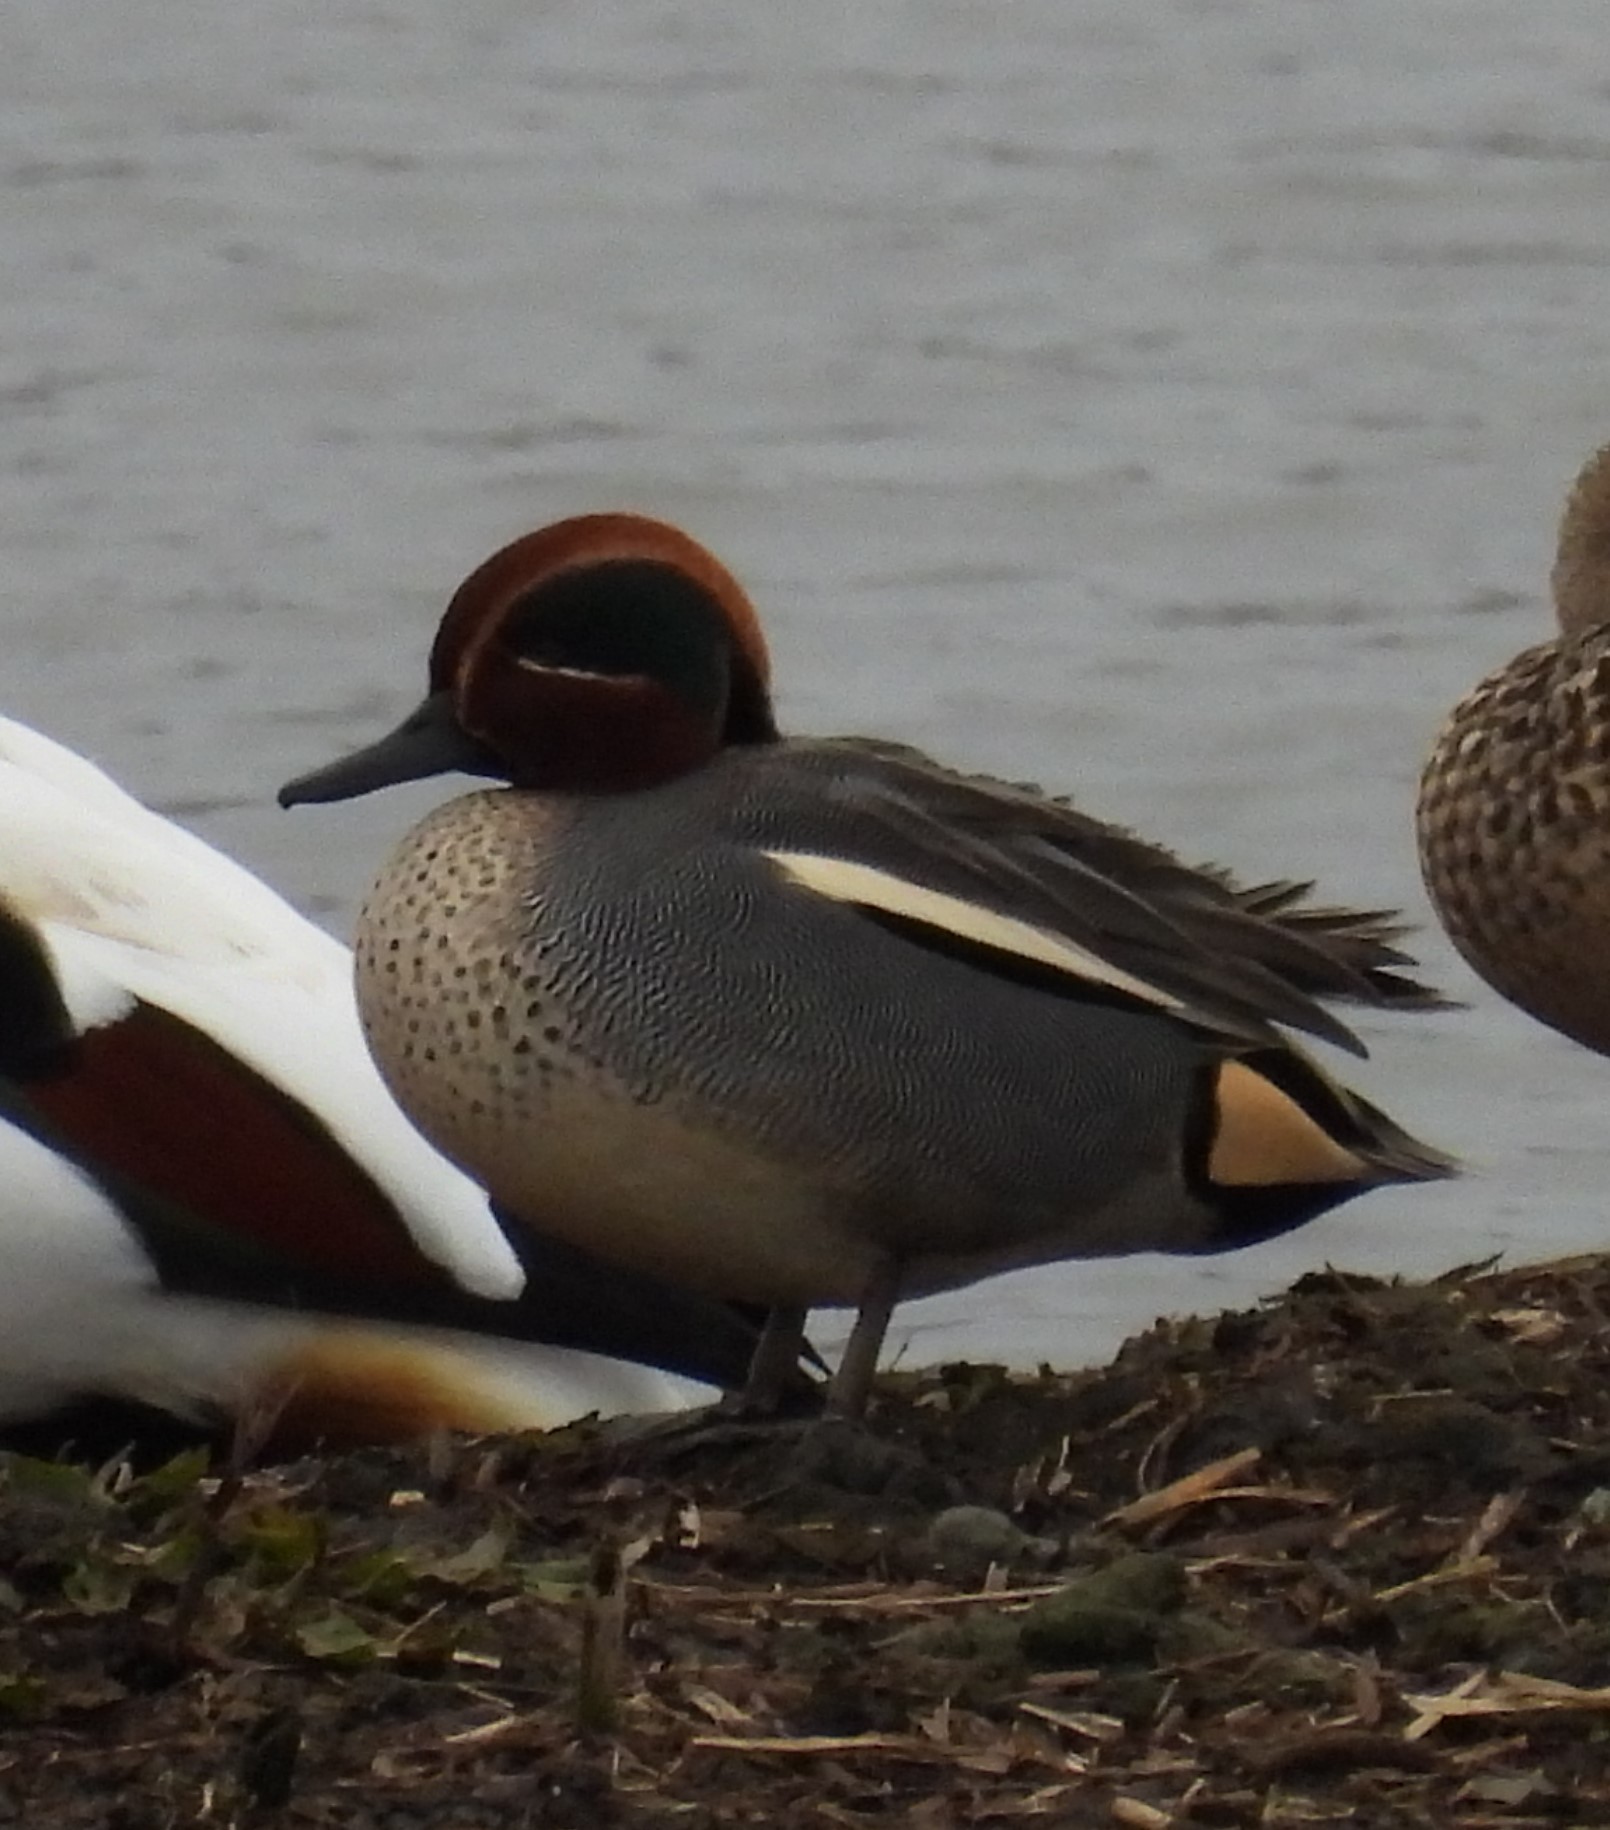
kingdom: Animalia
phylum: Chordata
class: Aves
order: Anseriformes
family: Anatidae
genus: Anas
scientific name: Anas crecca
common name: Eurasian teal
